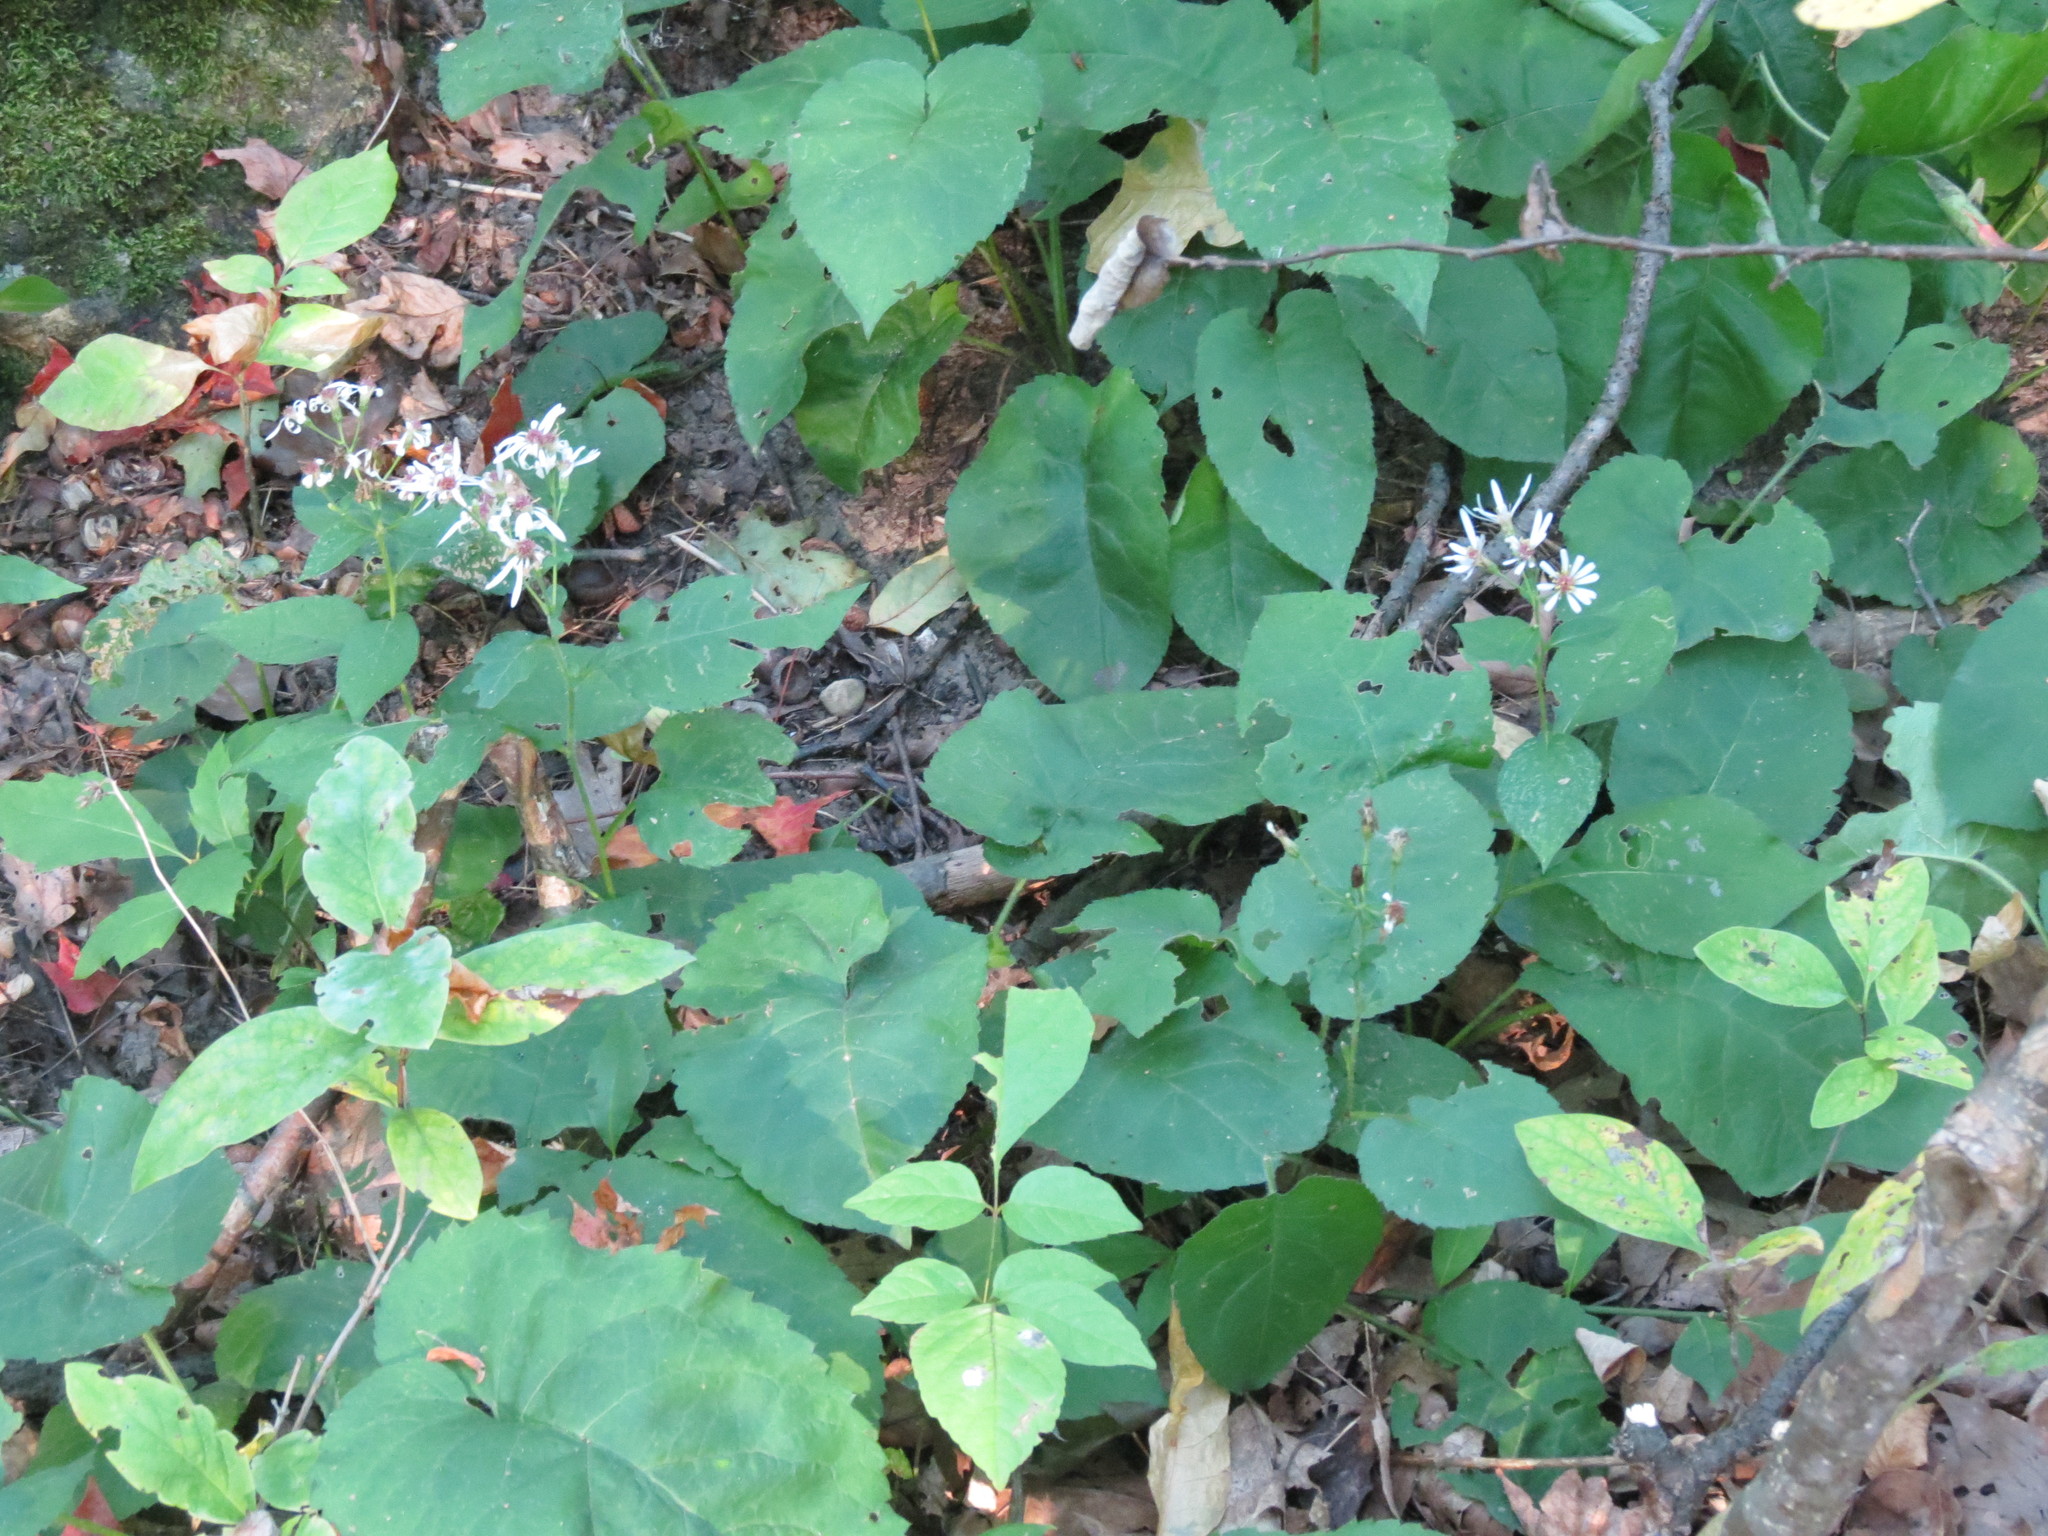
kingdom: Plantae
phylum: Tracheophyta
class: Magnoliopsida
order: Asterales
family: Asteraceae
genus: Eurybia
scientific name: Eurybia macrophylla
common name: Big-leaved aster
